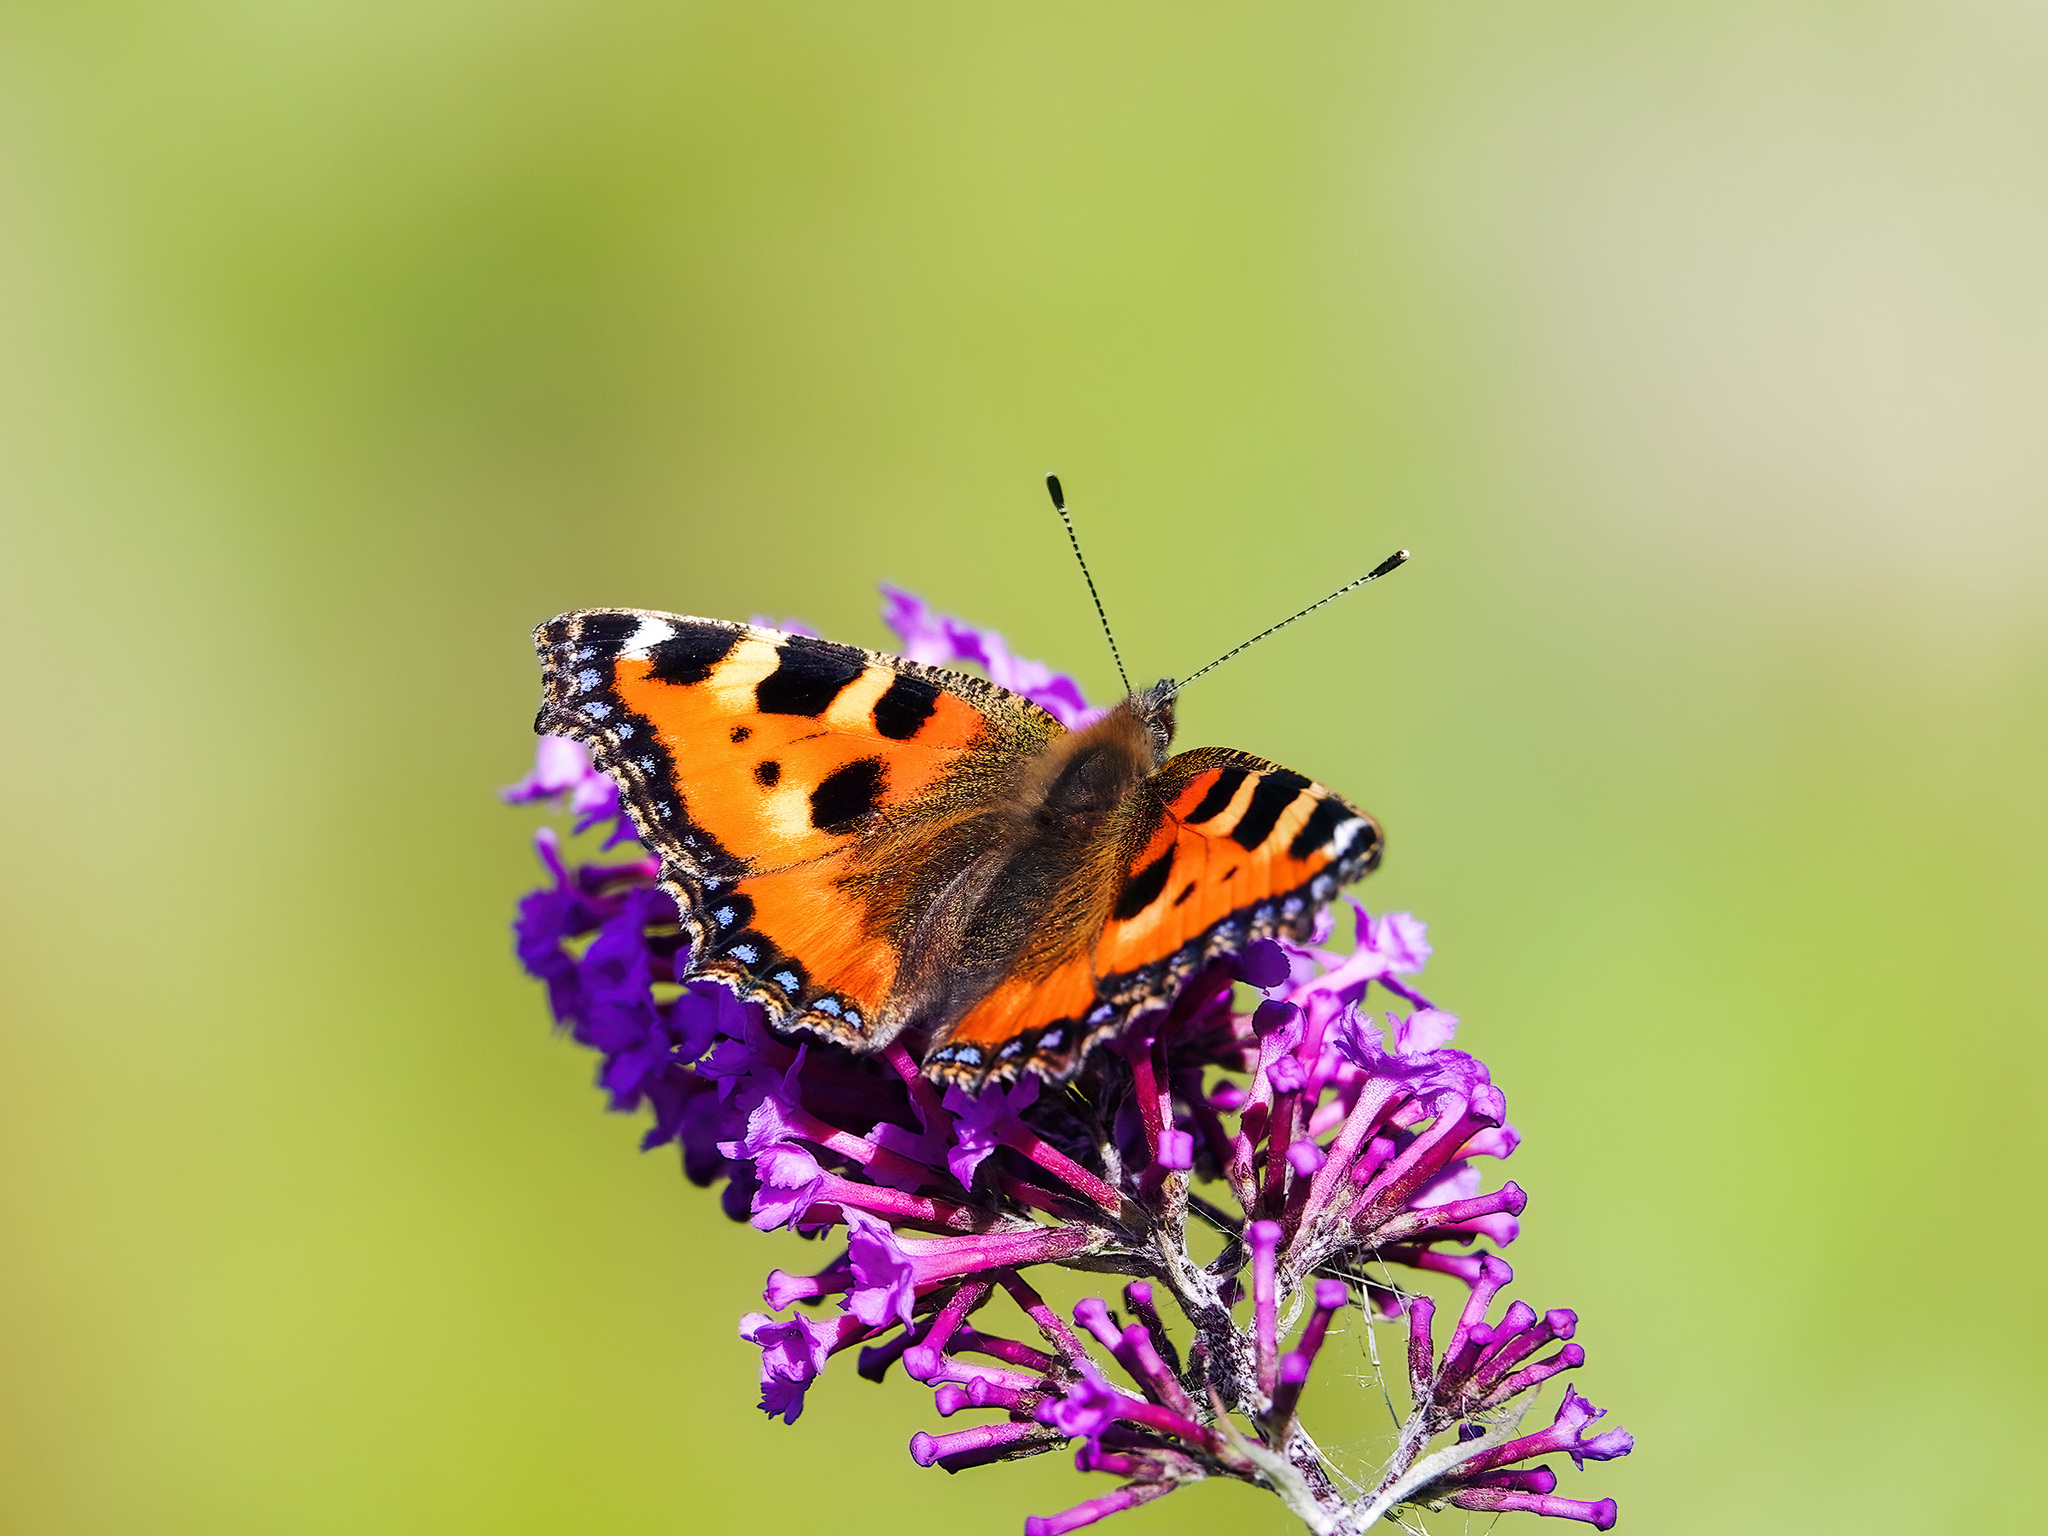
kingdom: Animalia
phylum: Arthropoda
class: Insecta
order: Lepidoptera
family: Nymphalidae
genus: Aglais
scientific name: Aglais urticae
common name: Small tortoiseshell
